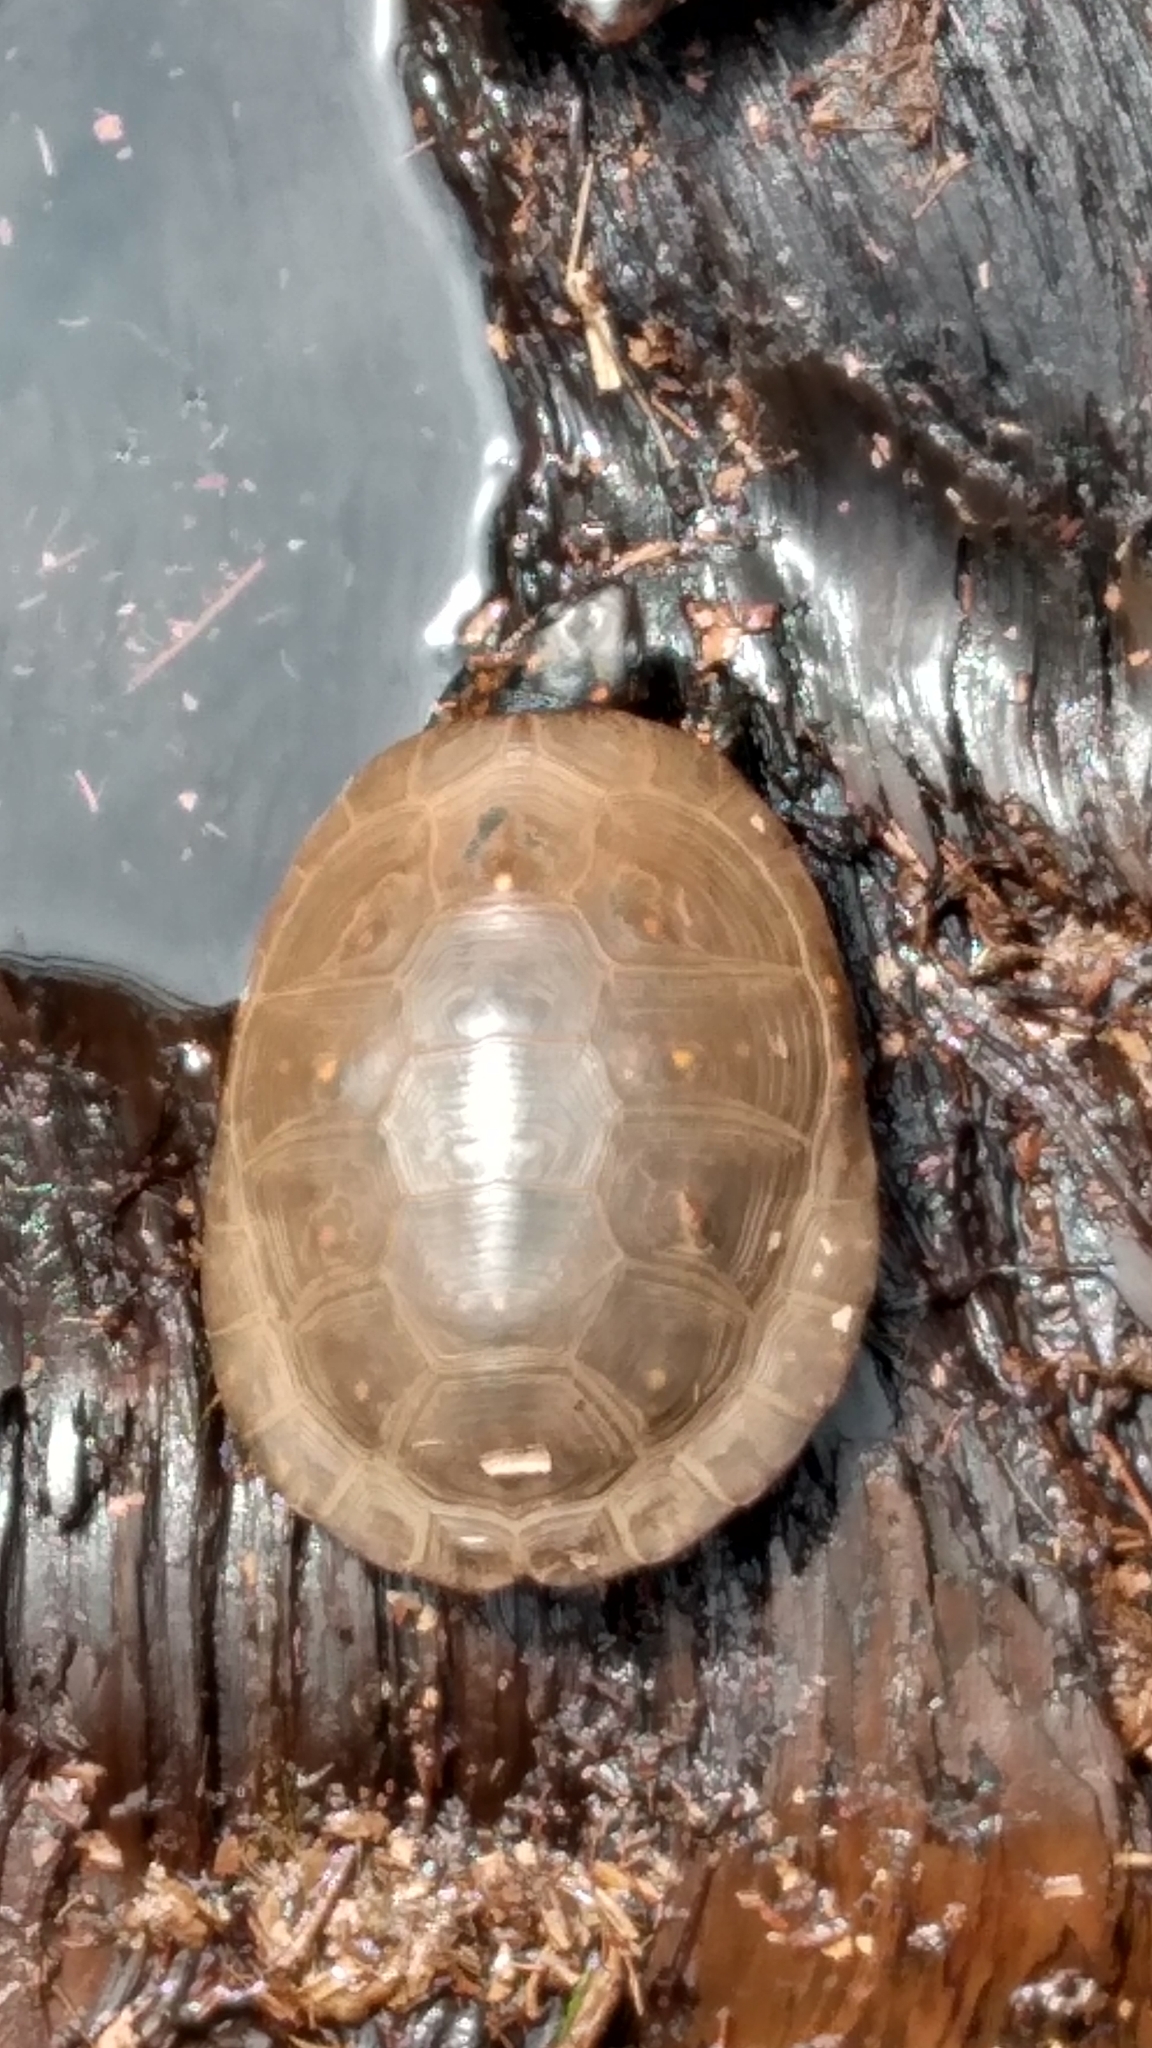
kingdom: Animalia
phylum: Chordata
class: Testudines
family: Emydidae
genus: Clemmys
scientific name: Clemmys guttata
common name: Spotted turtle
